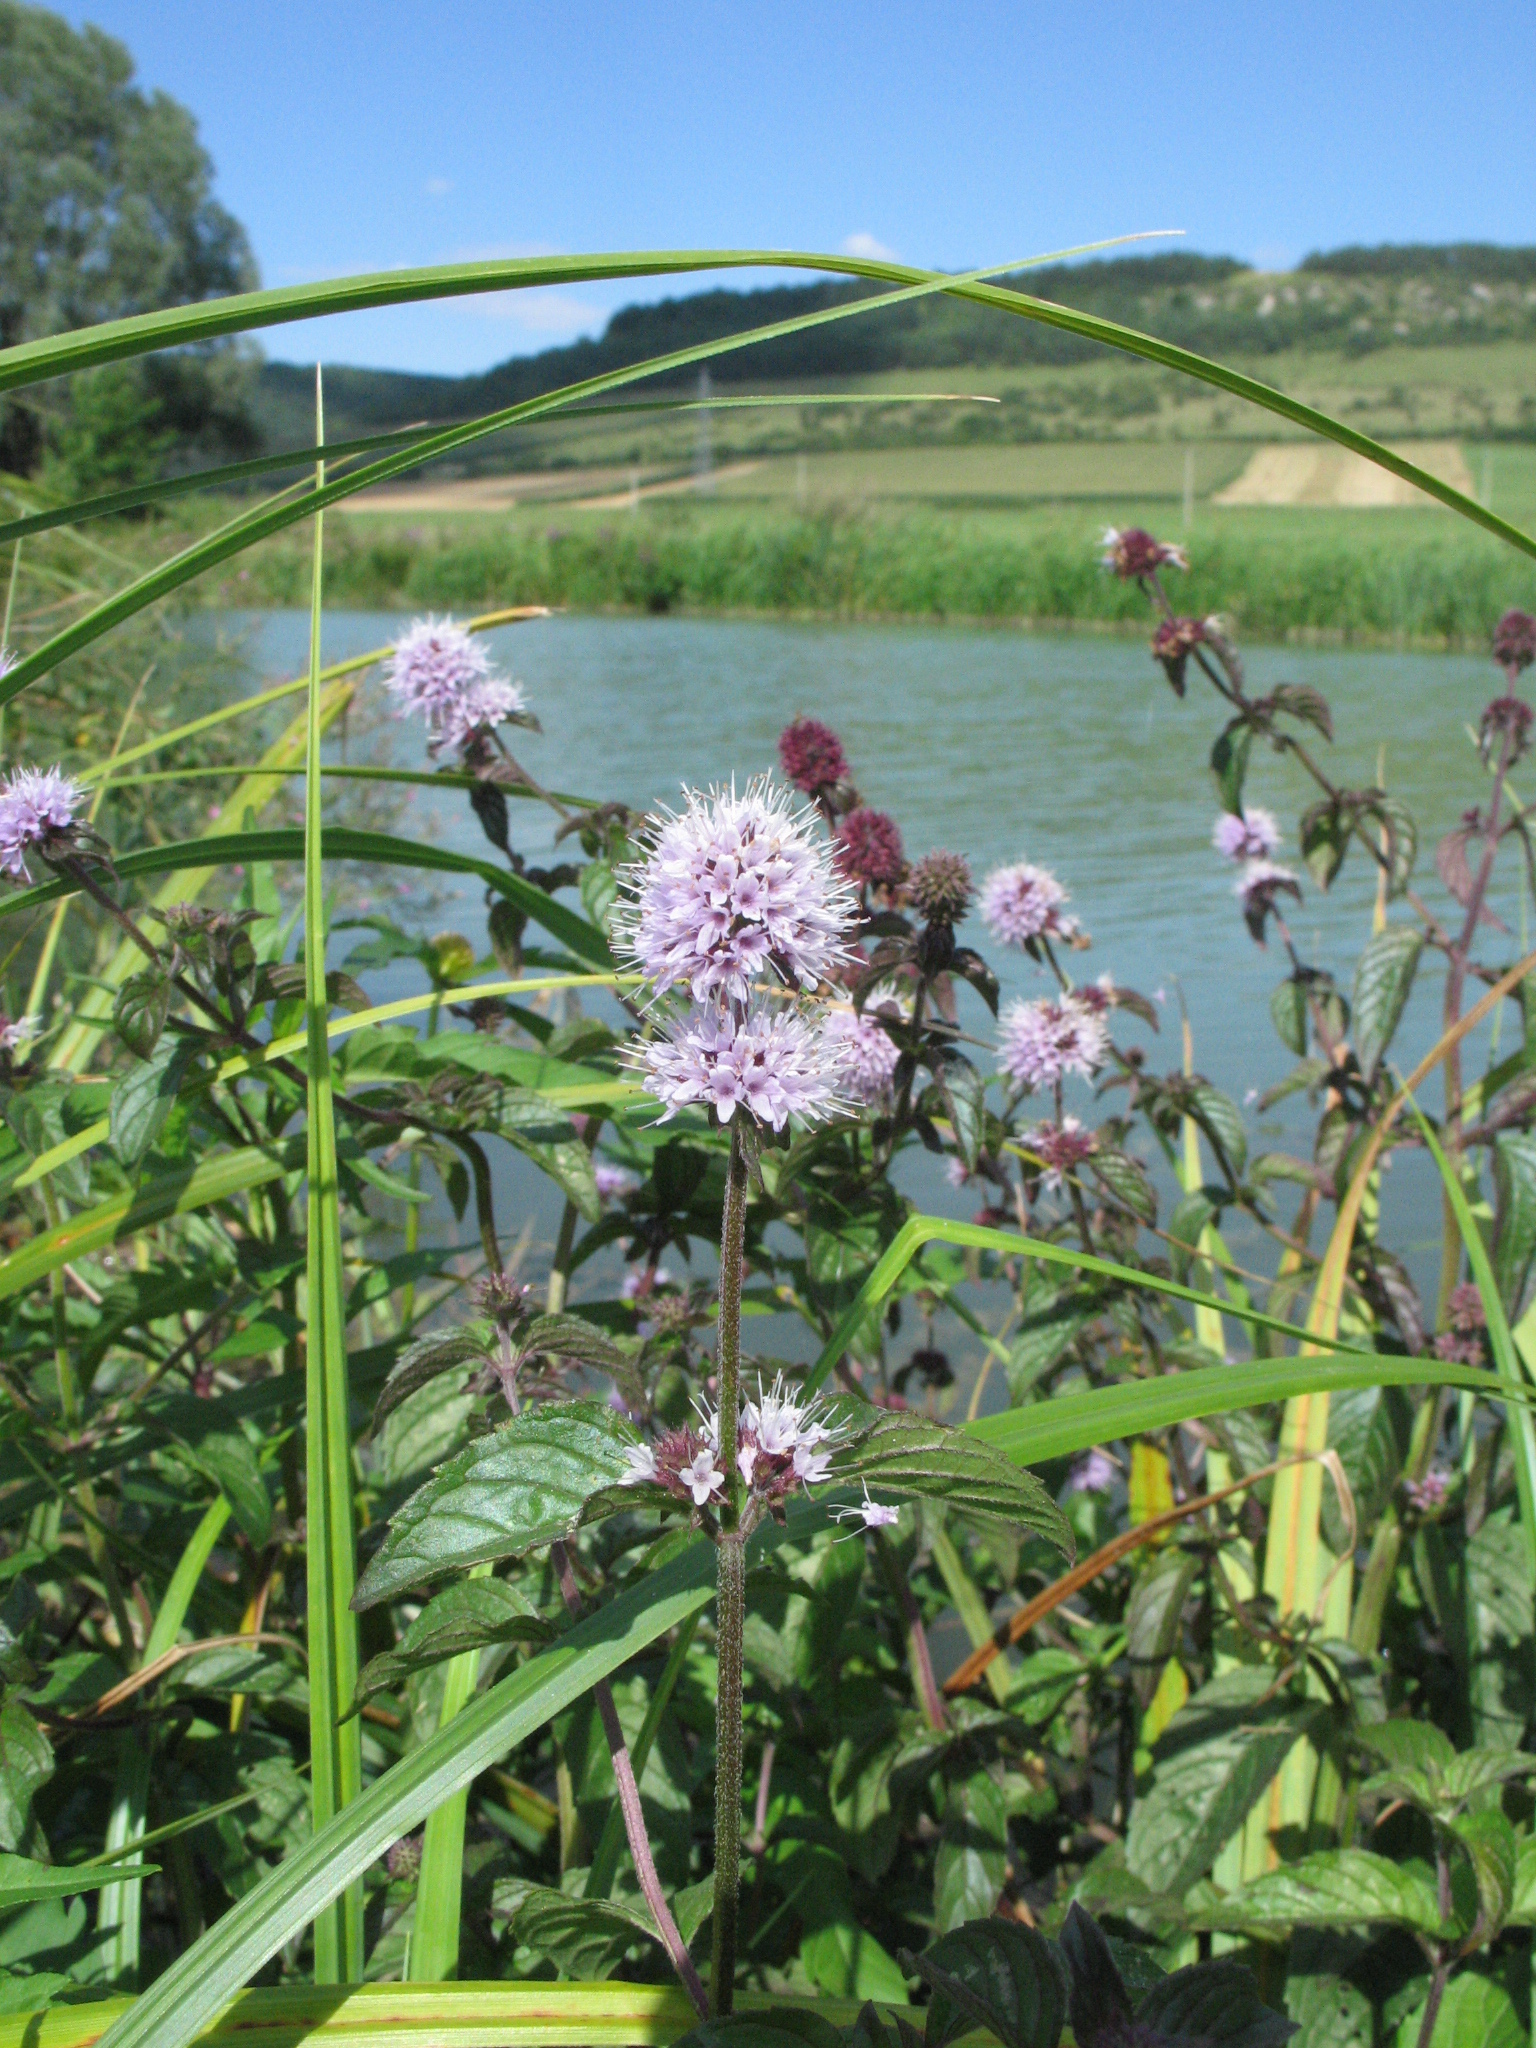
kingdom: Plantae
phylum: Tracheophyta
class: Magnoliopsida
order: Lamiales
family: Lamiaceae
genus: Mentha
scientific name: Mentha aquatica
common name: Water mint
